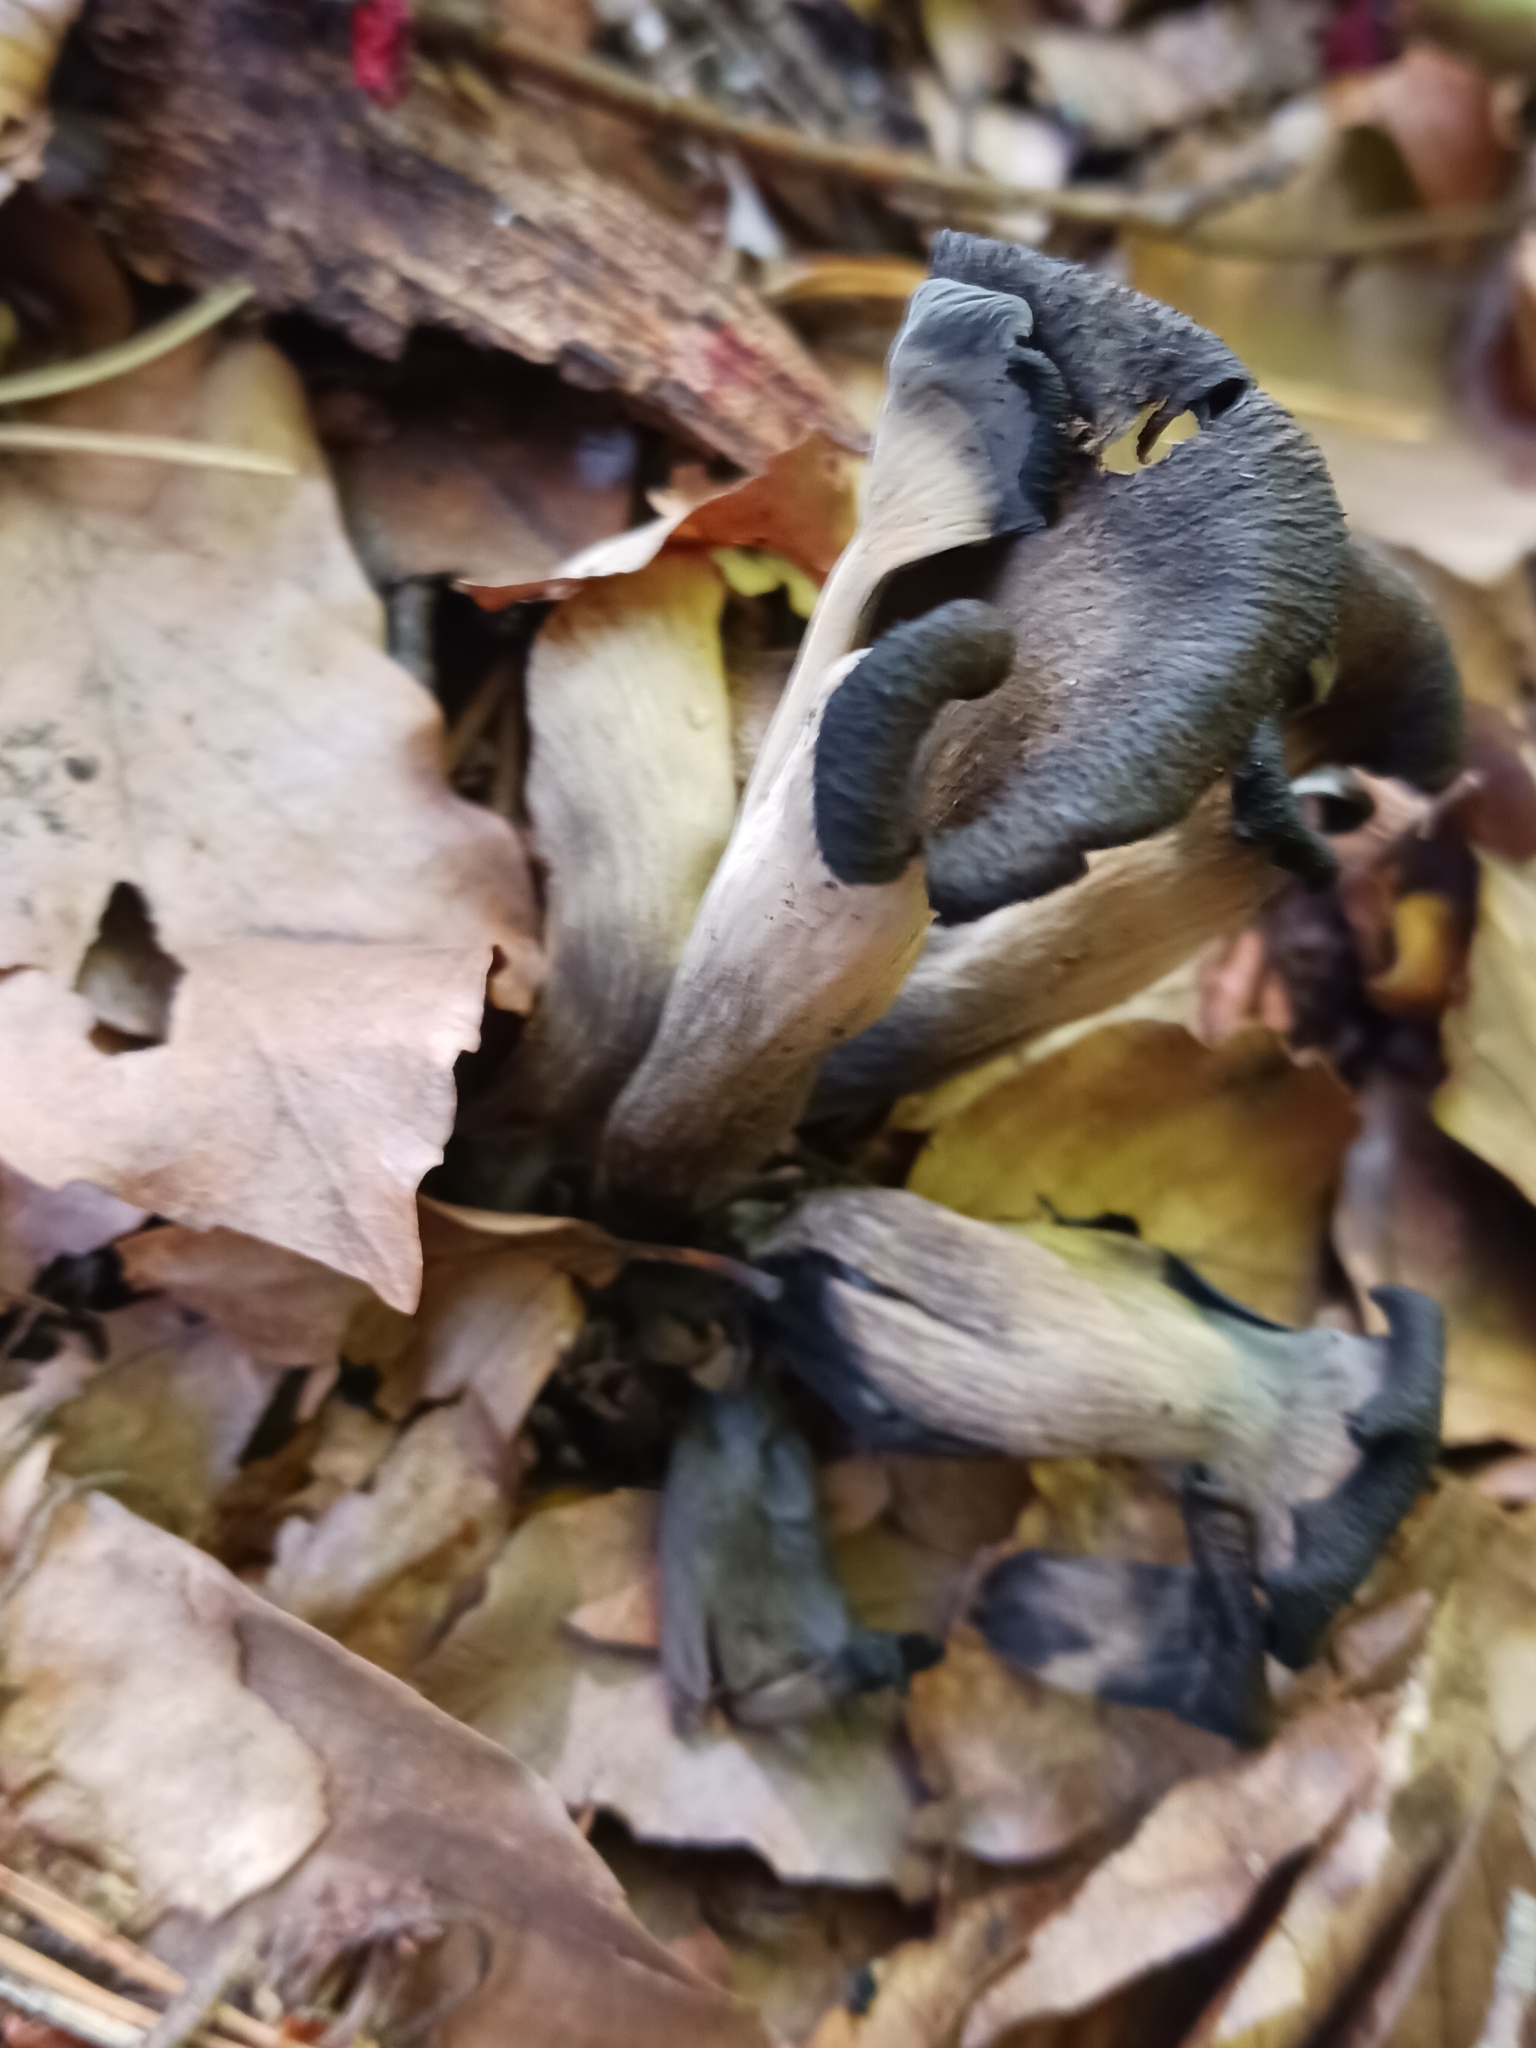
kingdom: Fungi
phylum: Basidiomycota
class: Agaricomycetes
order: Cantharellales
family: Hydnaceae
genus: Craterellus
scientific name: Craterellus cornucopioides
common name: Horn of plenty
